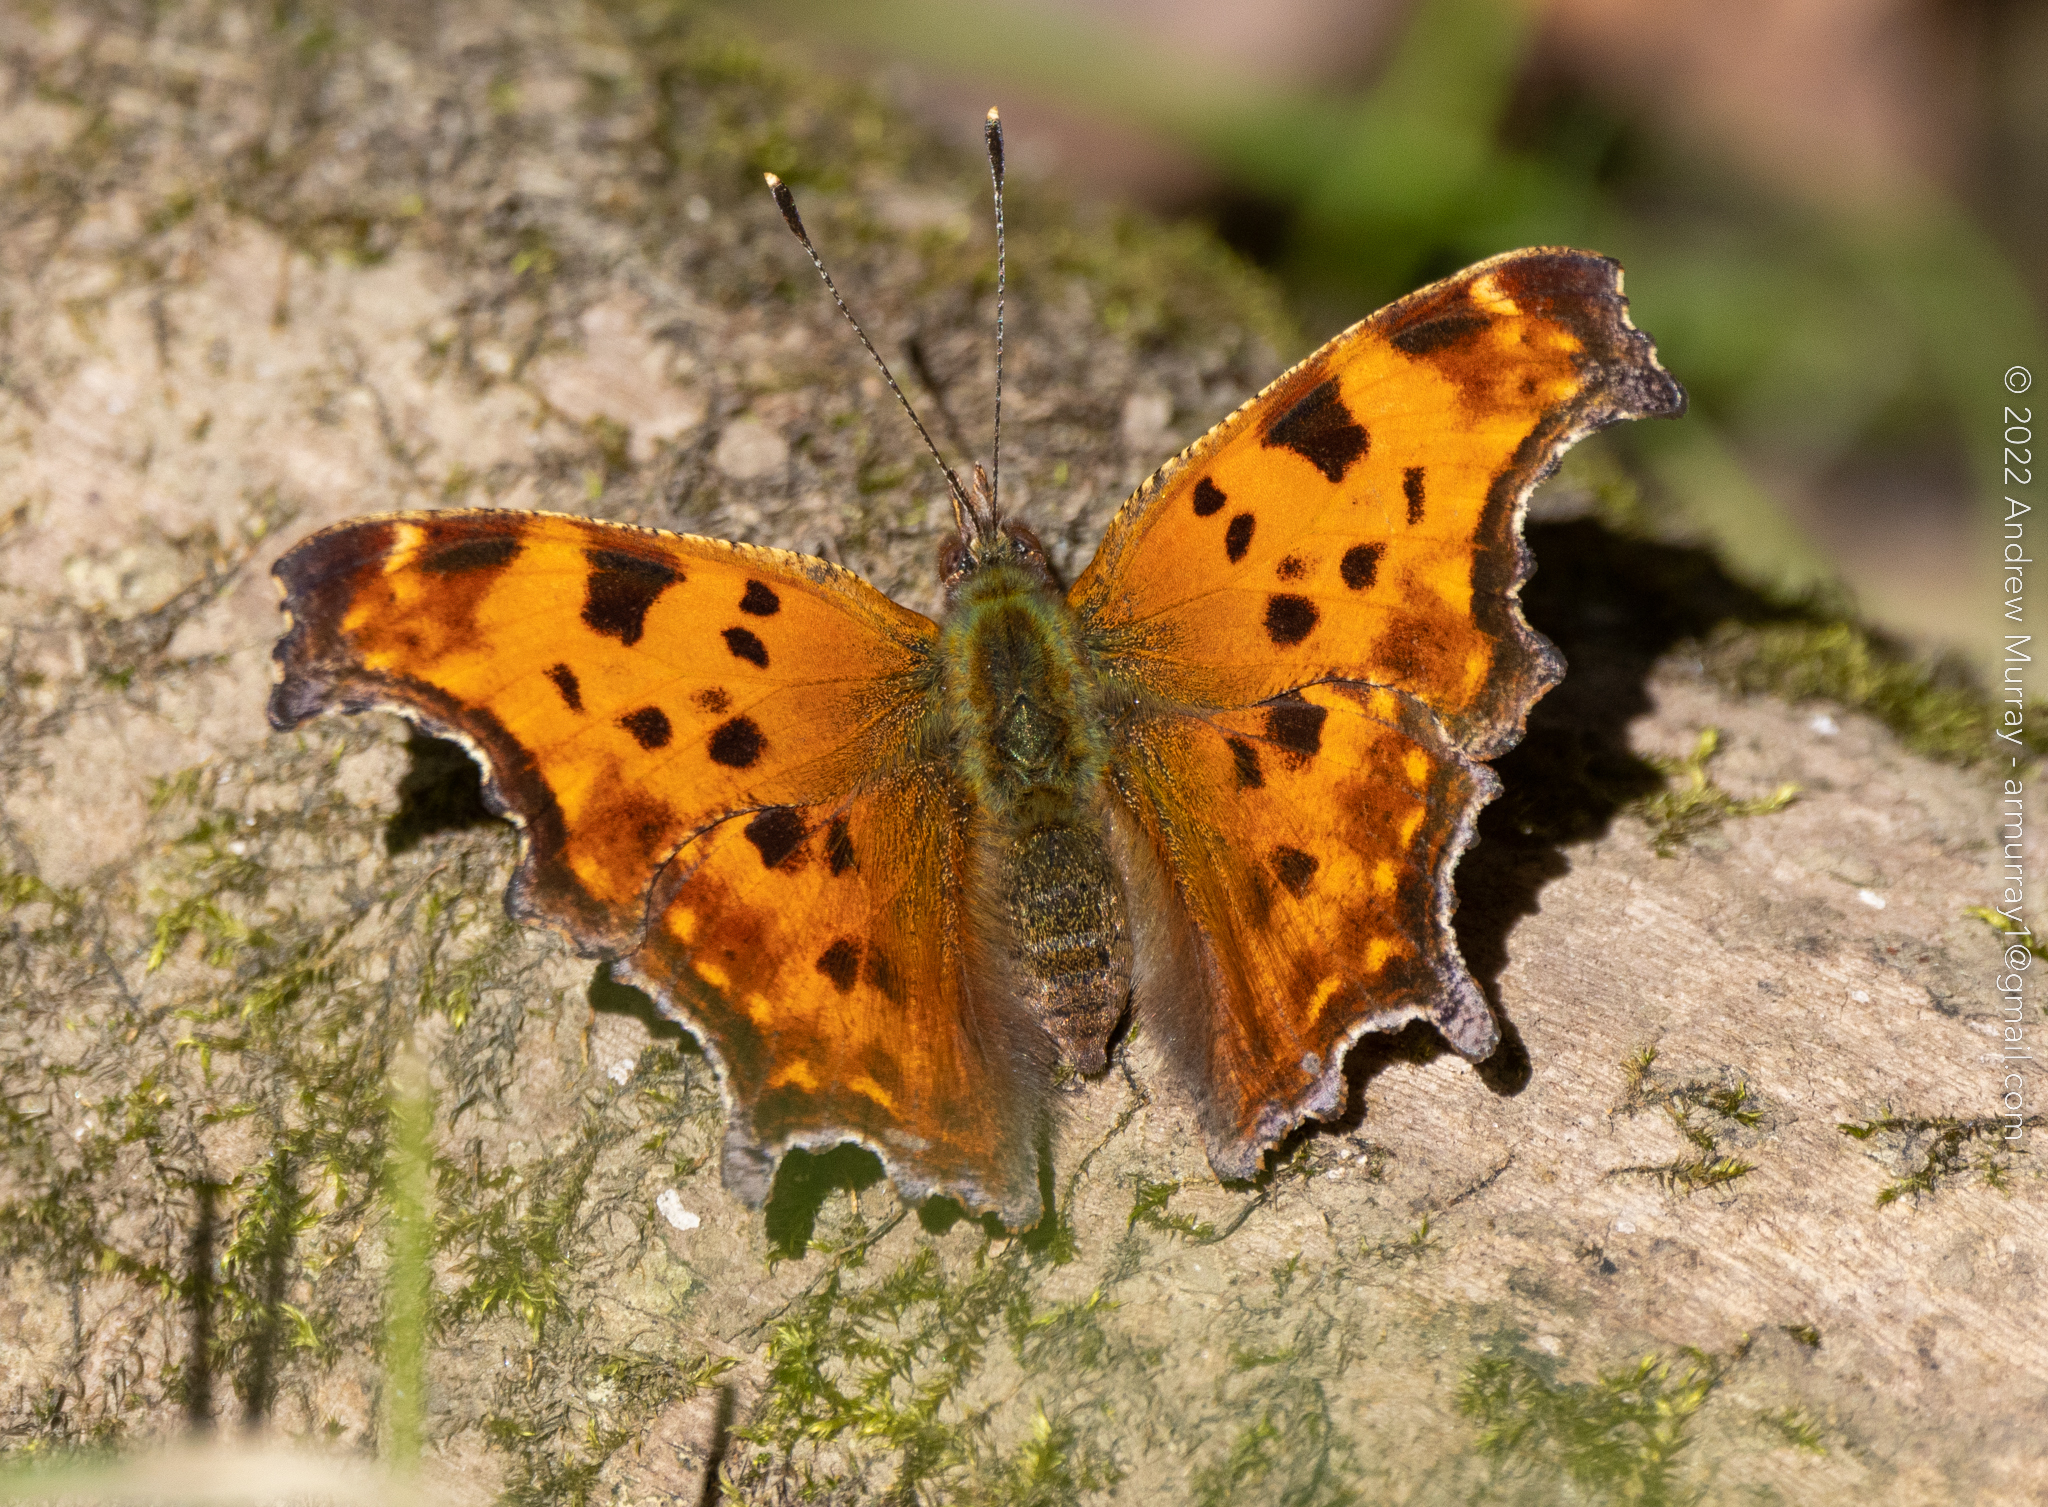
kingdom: Animalia
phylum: Arthropoda
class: Insecta
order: Lepidoptera
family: Nymphalidae
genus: Polygonia
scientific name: Polygonia comma
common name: Eastern comma
